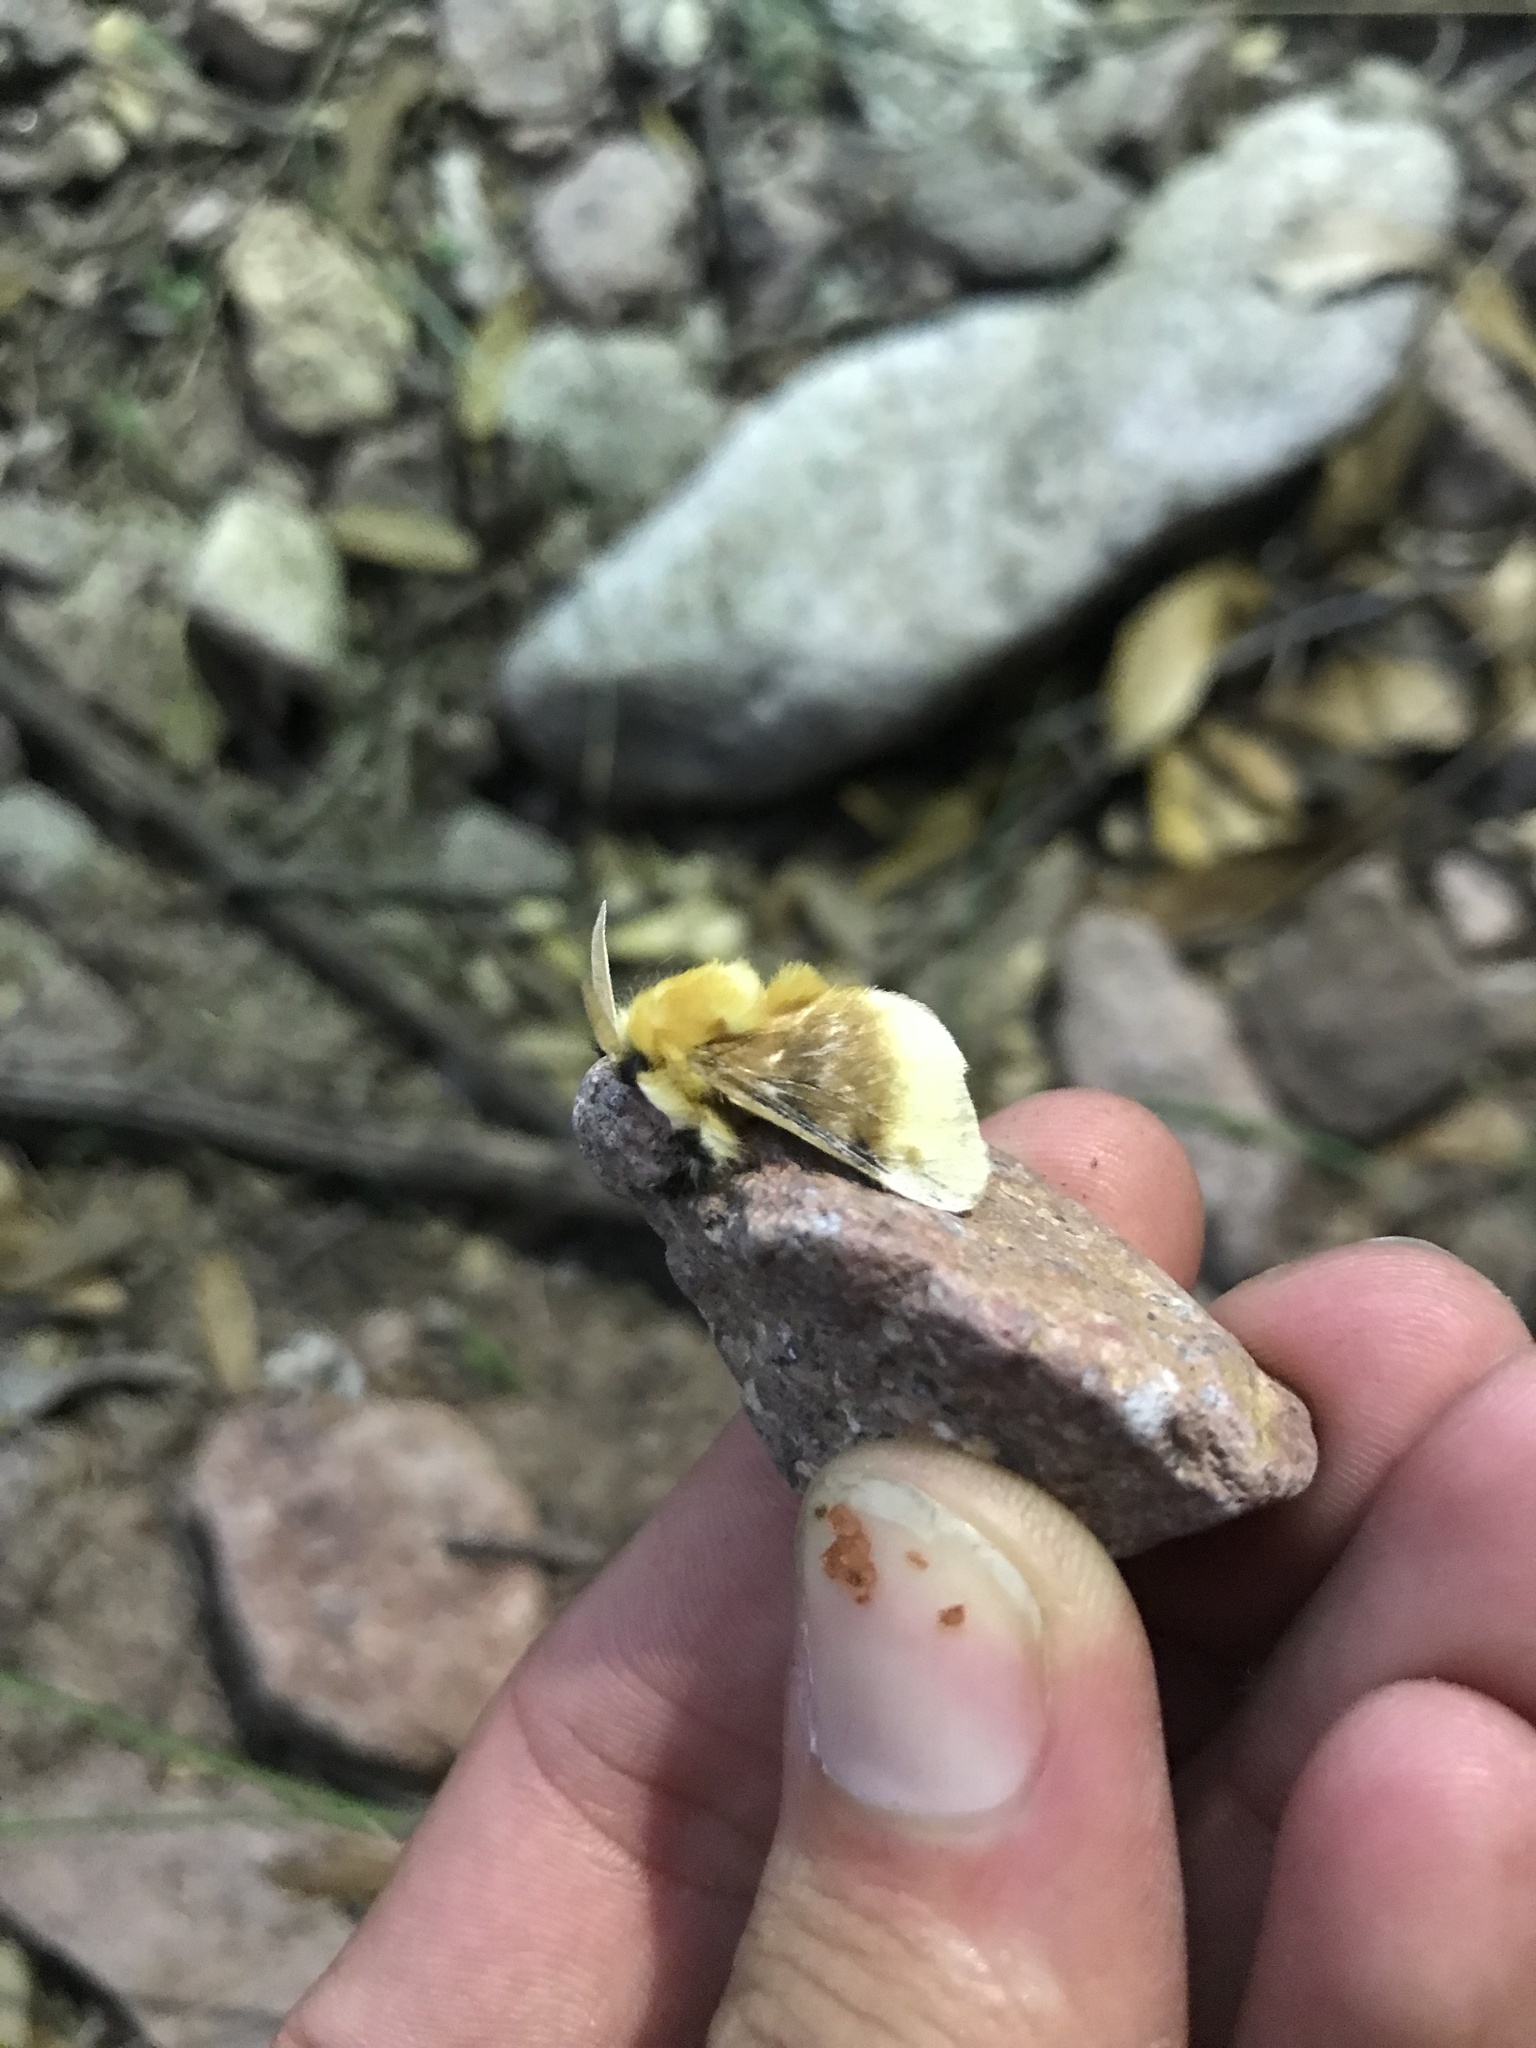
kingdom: Animalia
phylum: Arthropoda
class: Insecta
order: Lepidoptera
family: Megalopygidae
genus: Megalopyge
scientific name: Megalopyge opercularis
